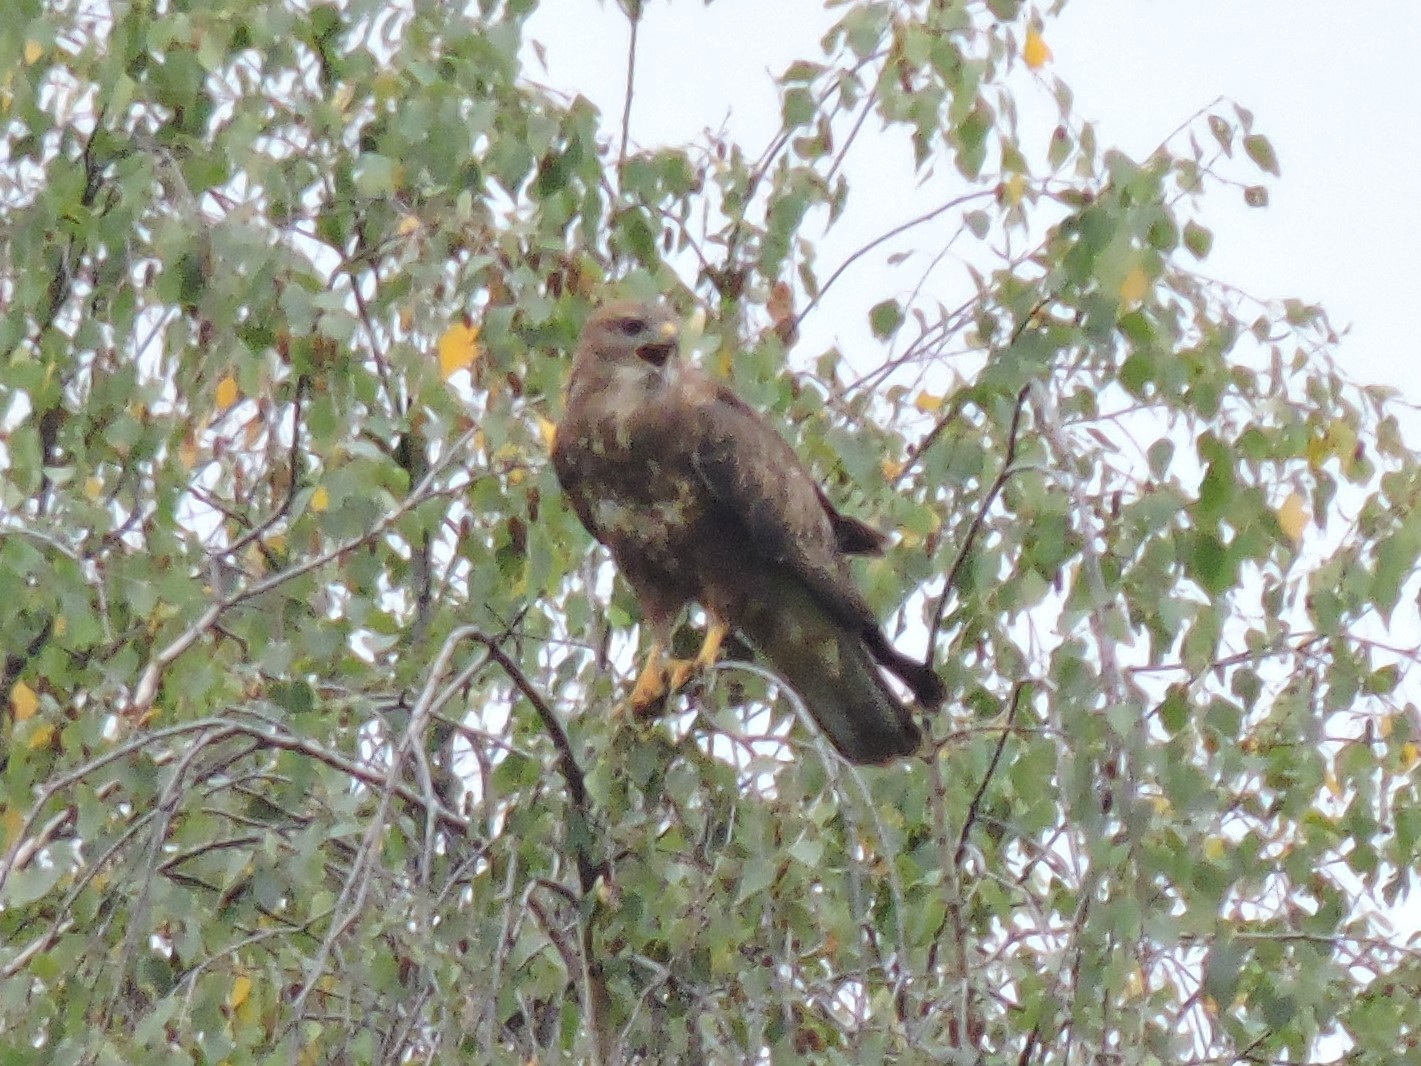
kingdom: Animalia
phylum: Chordata
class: Aves
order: Accipitriformes
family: Accipitridae
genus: Buteo
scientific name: Buteo buteo
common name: Common buzzard
